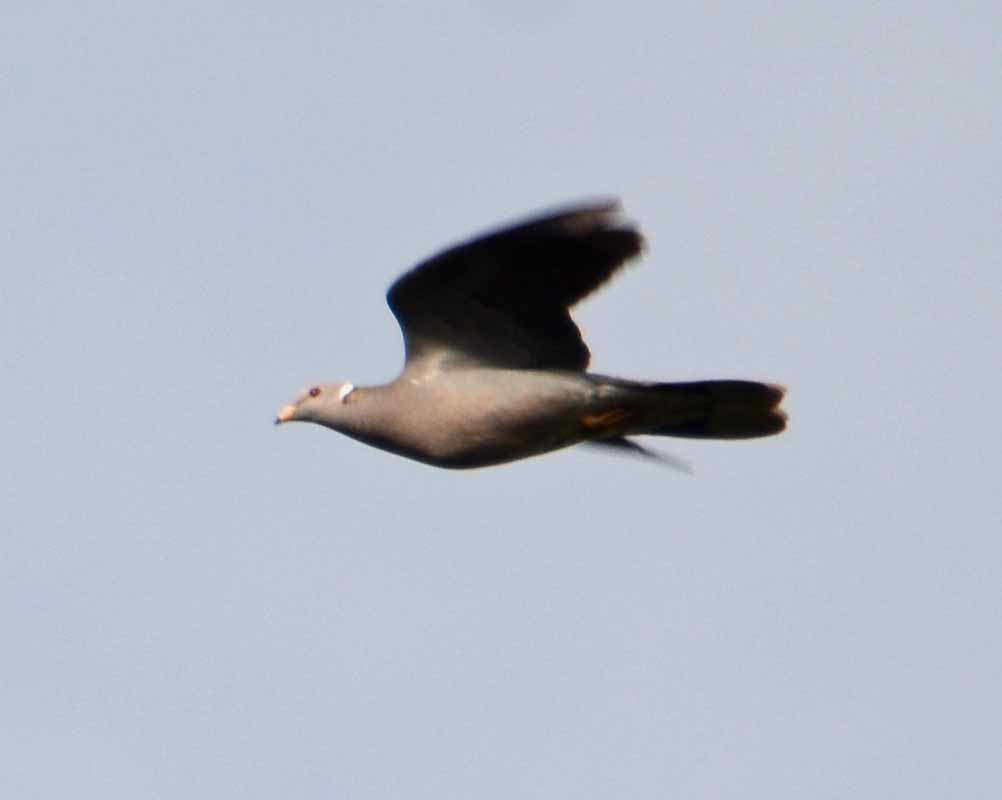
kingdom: Animalia
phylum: Chordata
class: Aves
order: Columbiformes
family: Columbidae
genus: Patagioenas
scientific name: Patagioenas fasciata
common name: Band-tailed pigeon
